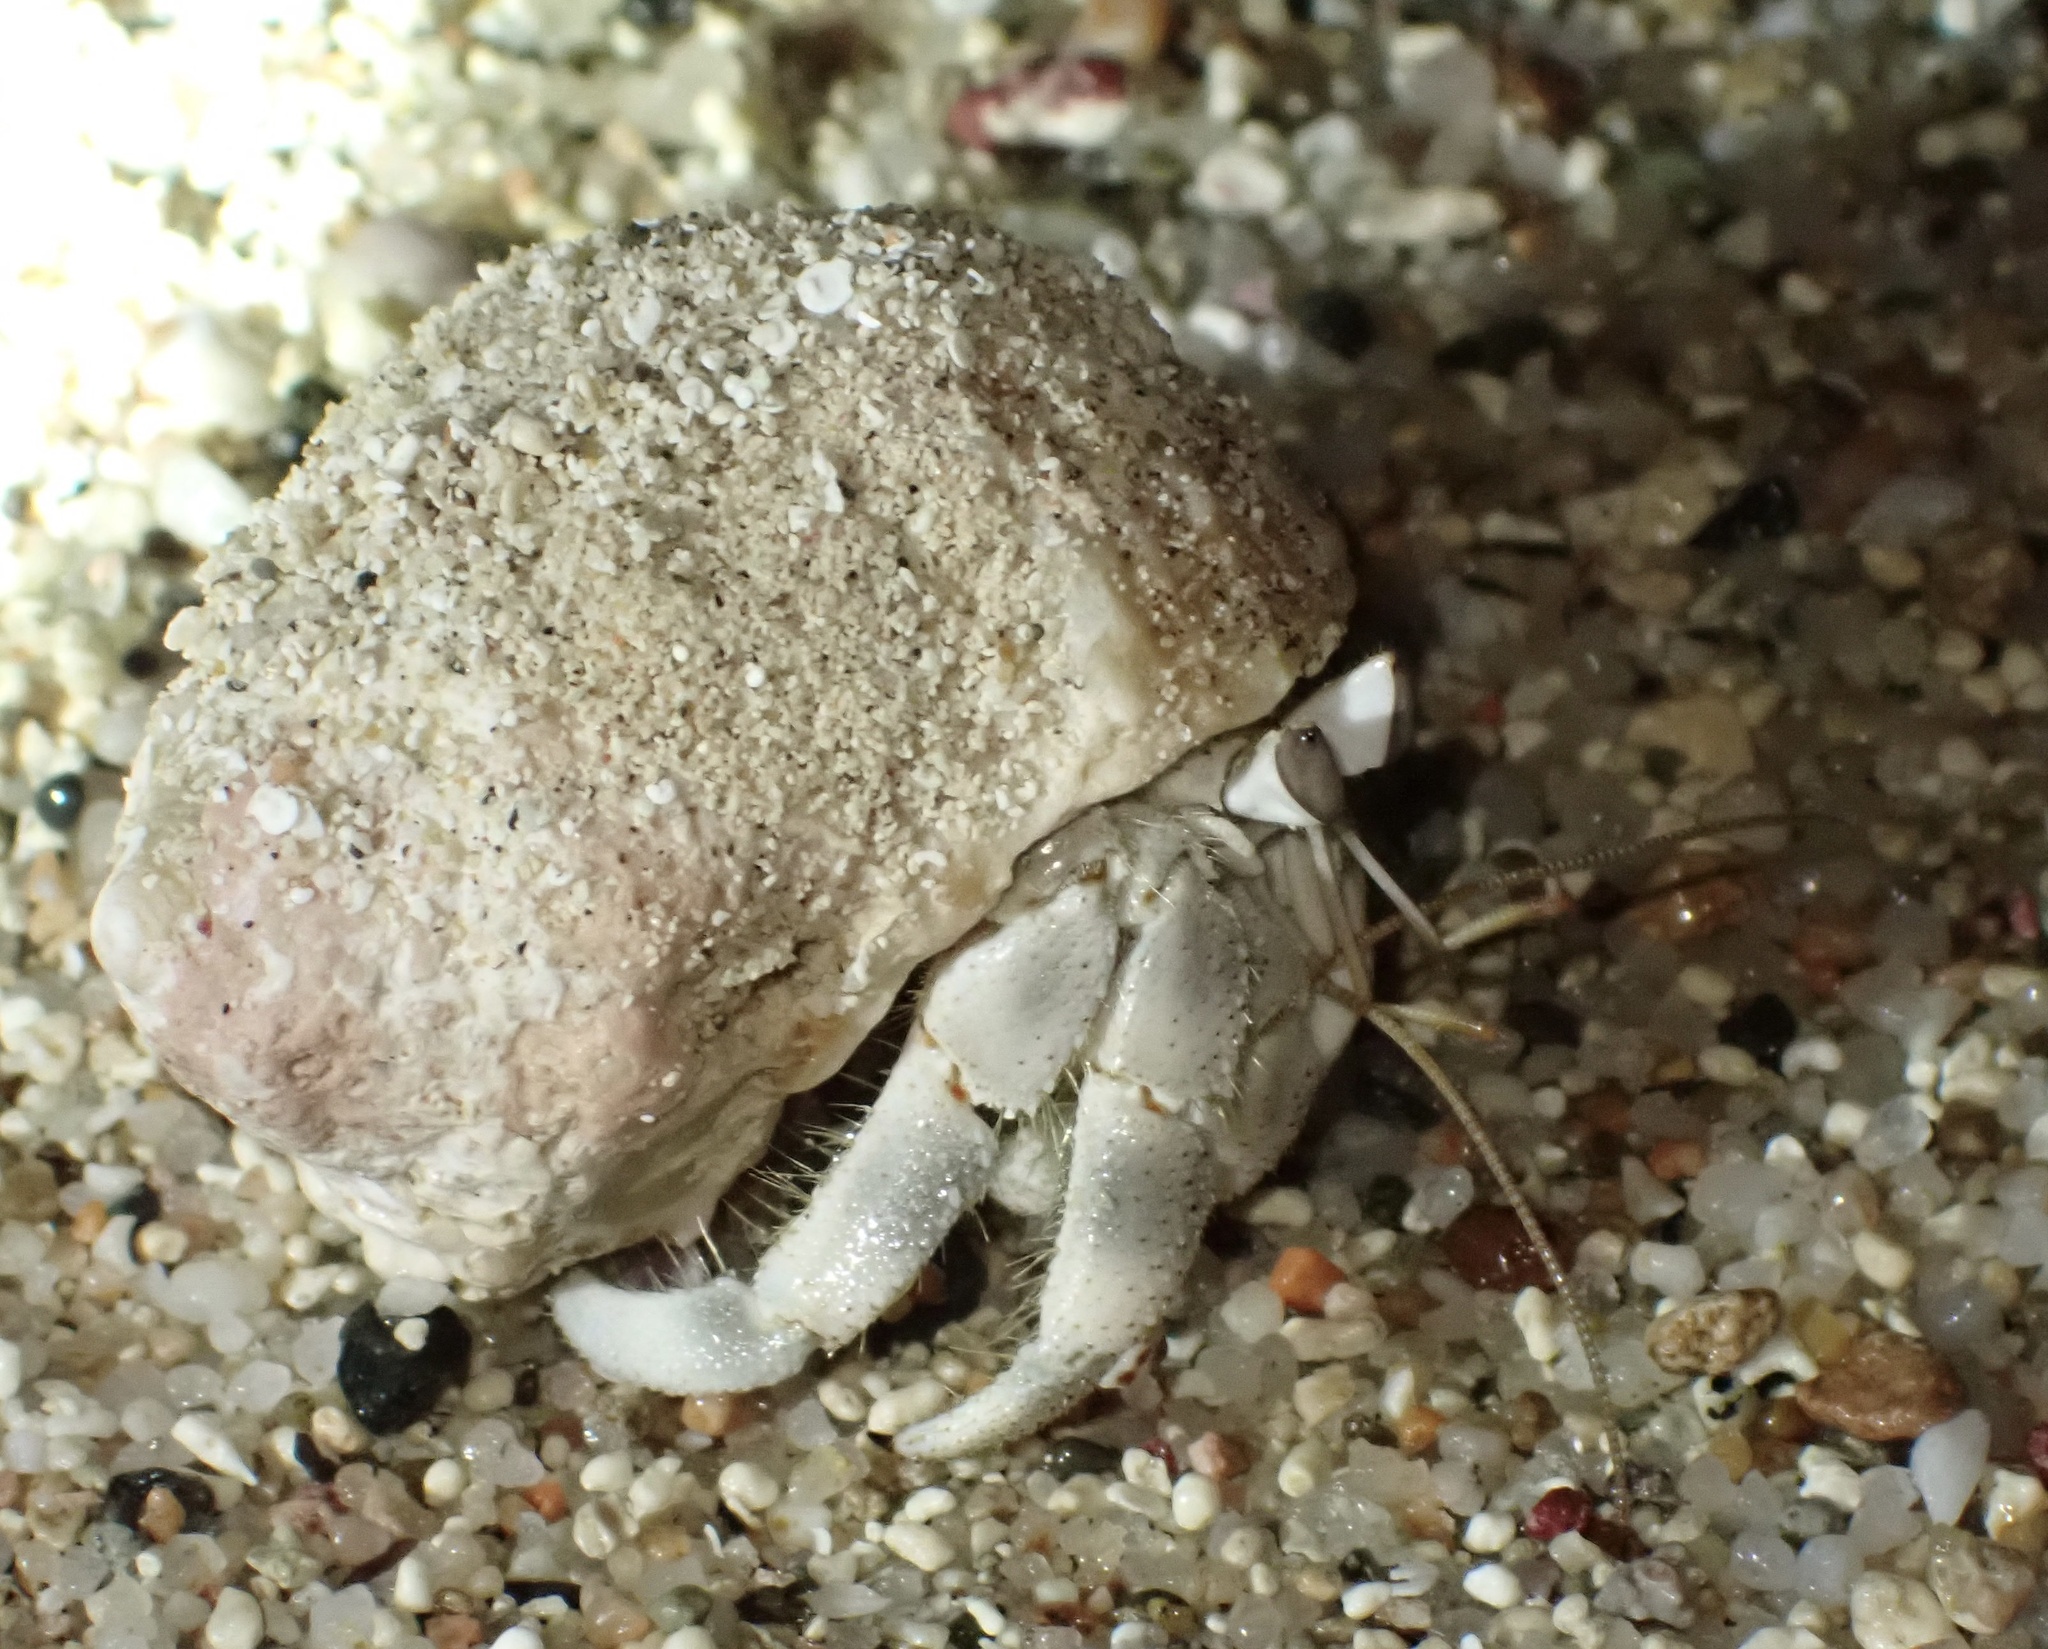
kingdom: Animalia
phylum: Arthropoda
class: Malacostraca
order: Decapoda
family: Coenobitidae
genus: Coenobita
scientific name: Coenobita scaevola
